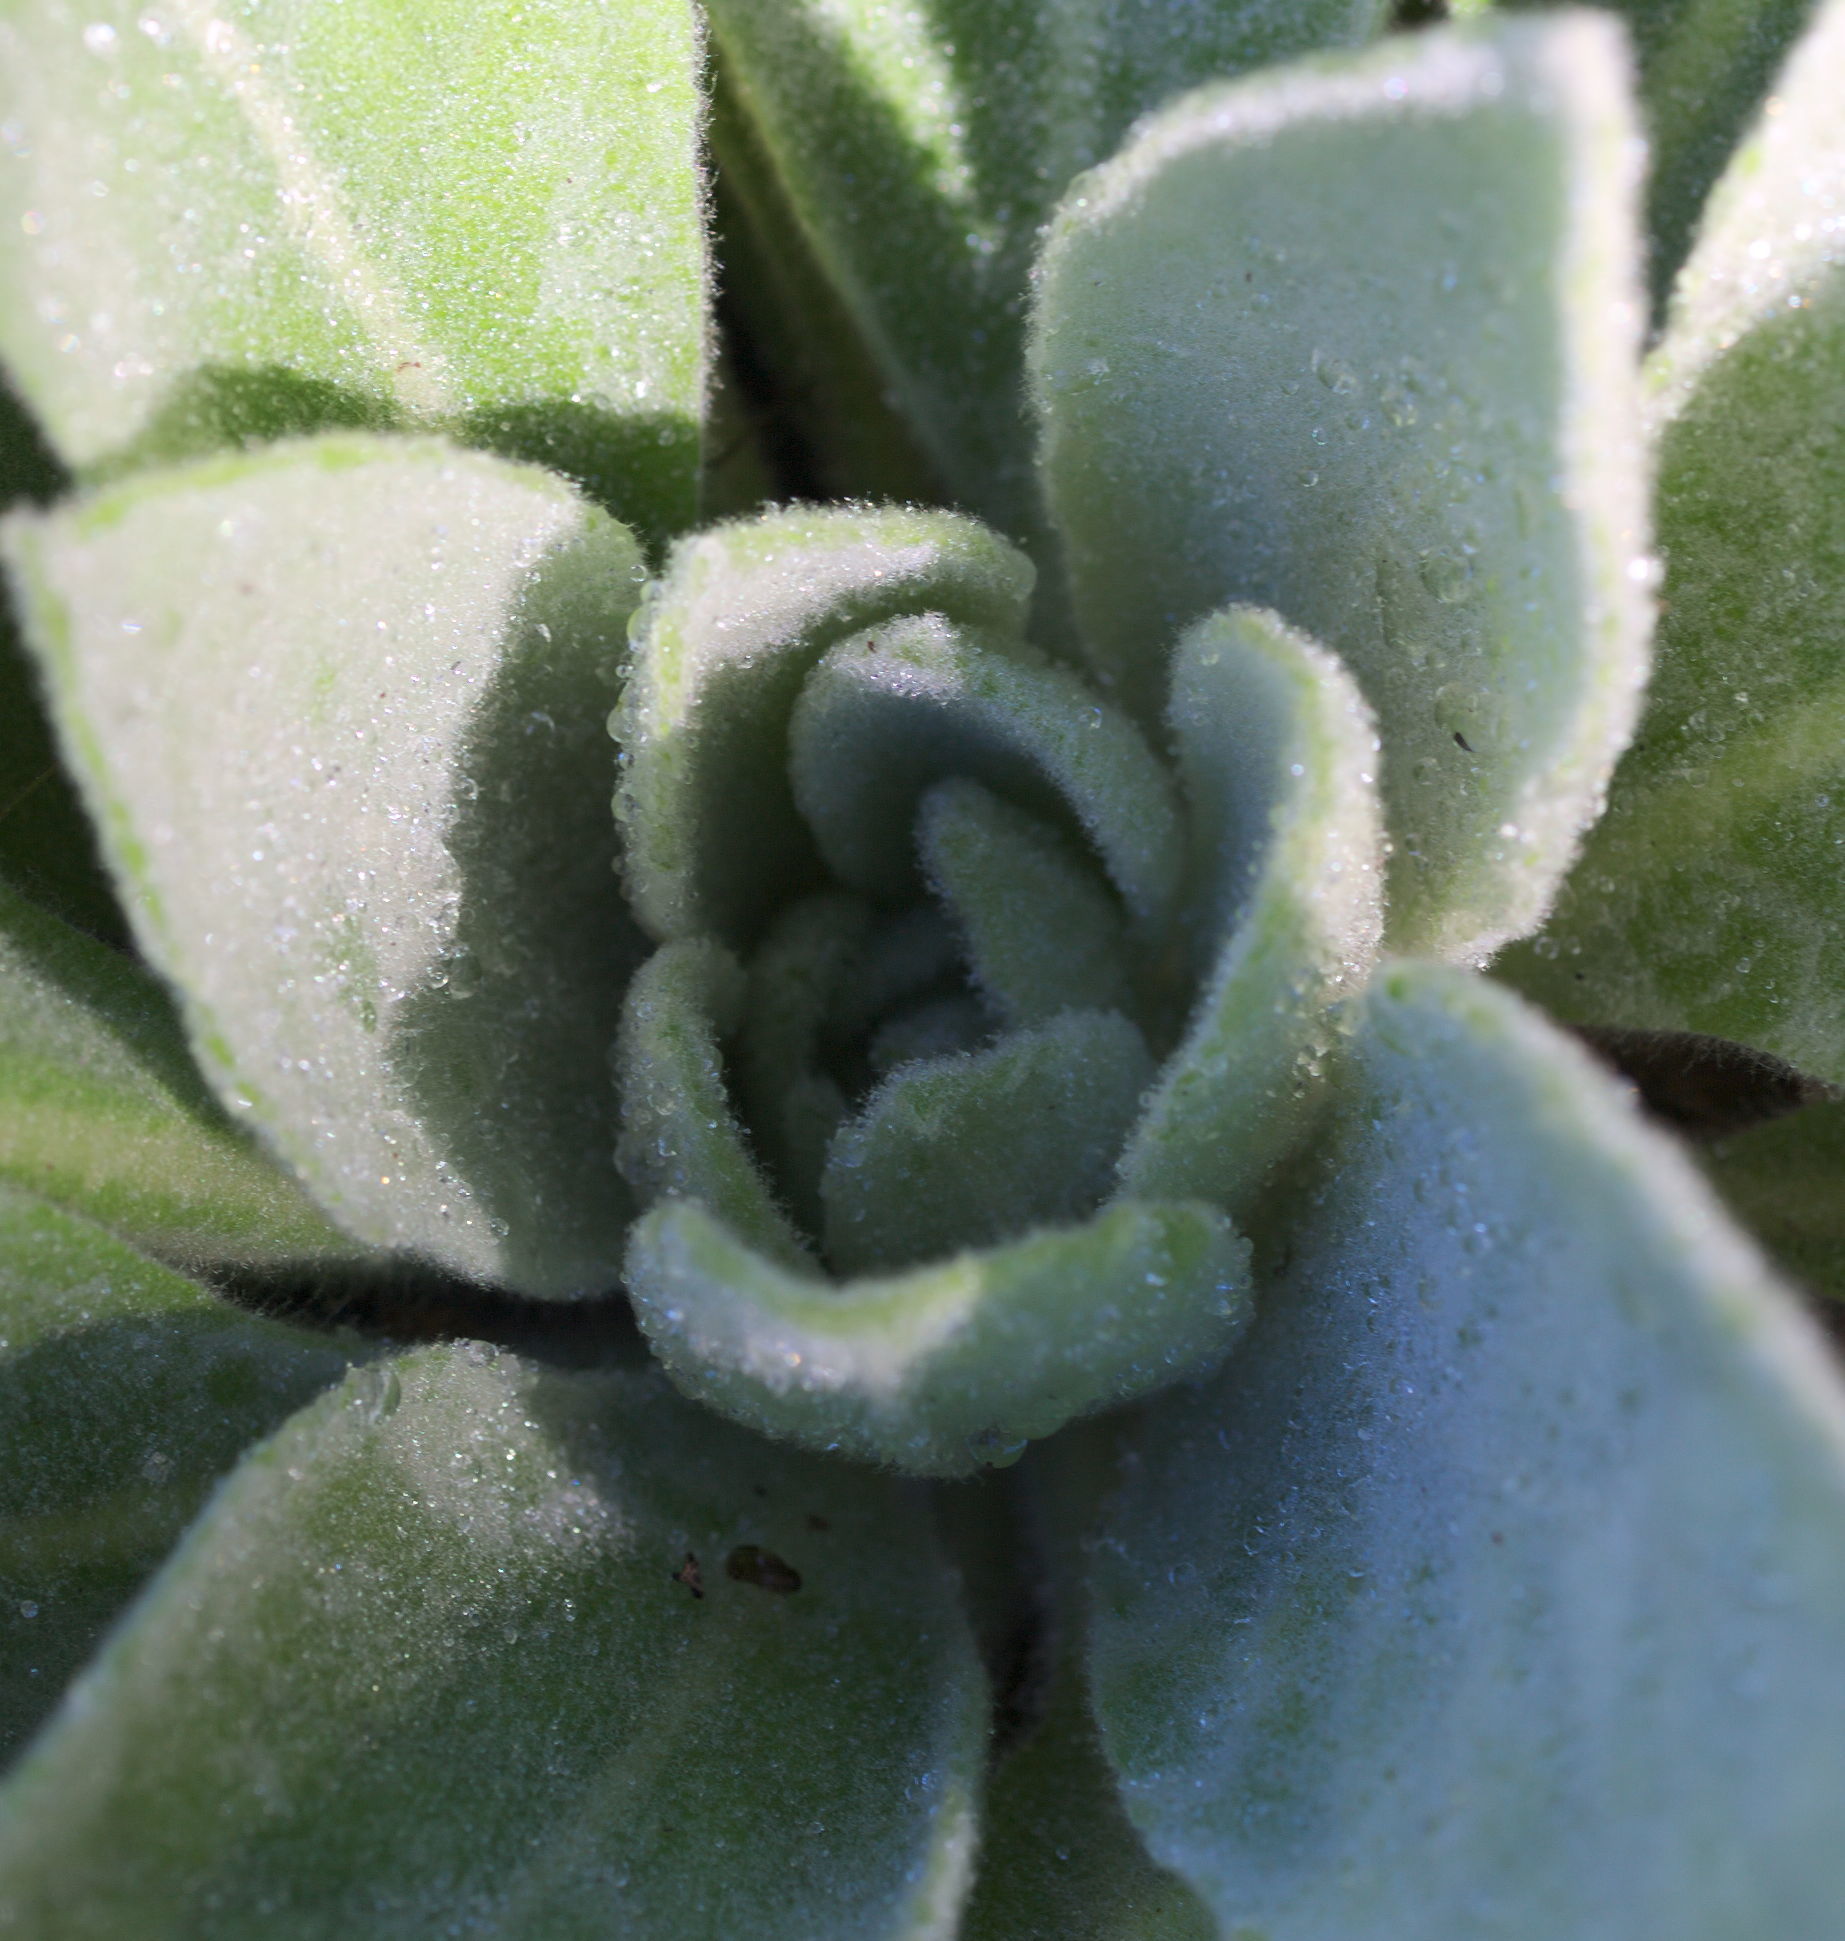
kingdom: Plantae
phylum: Tracheophyta
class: Magnoliopsida
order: Lamiales
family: Scrophulariaceae
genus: Verbascum
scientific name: Verbascum thapsus
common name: Common mullein
